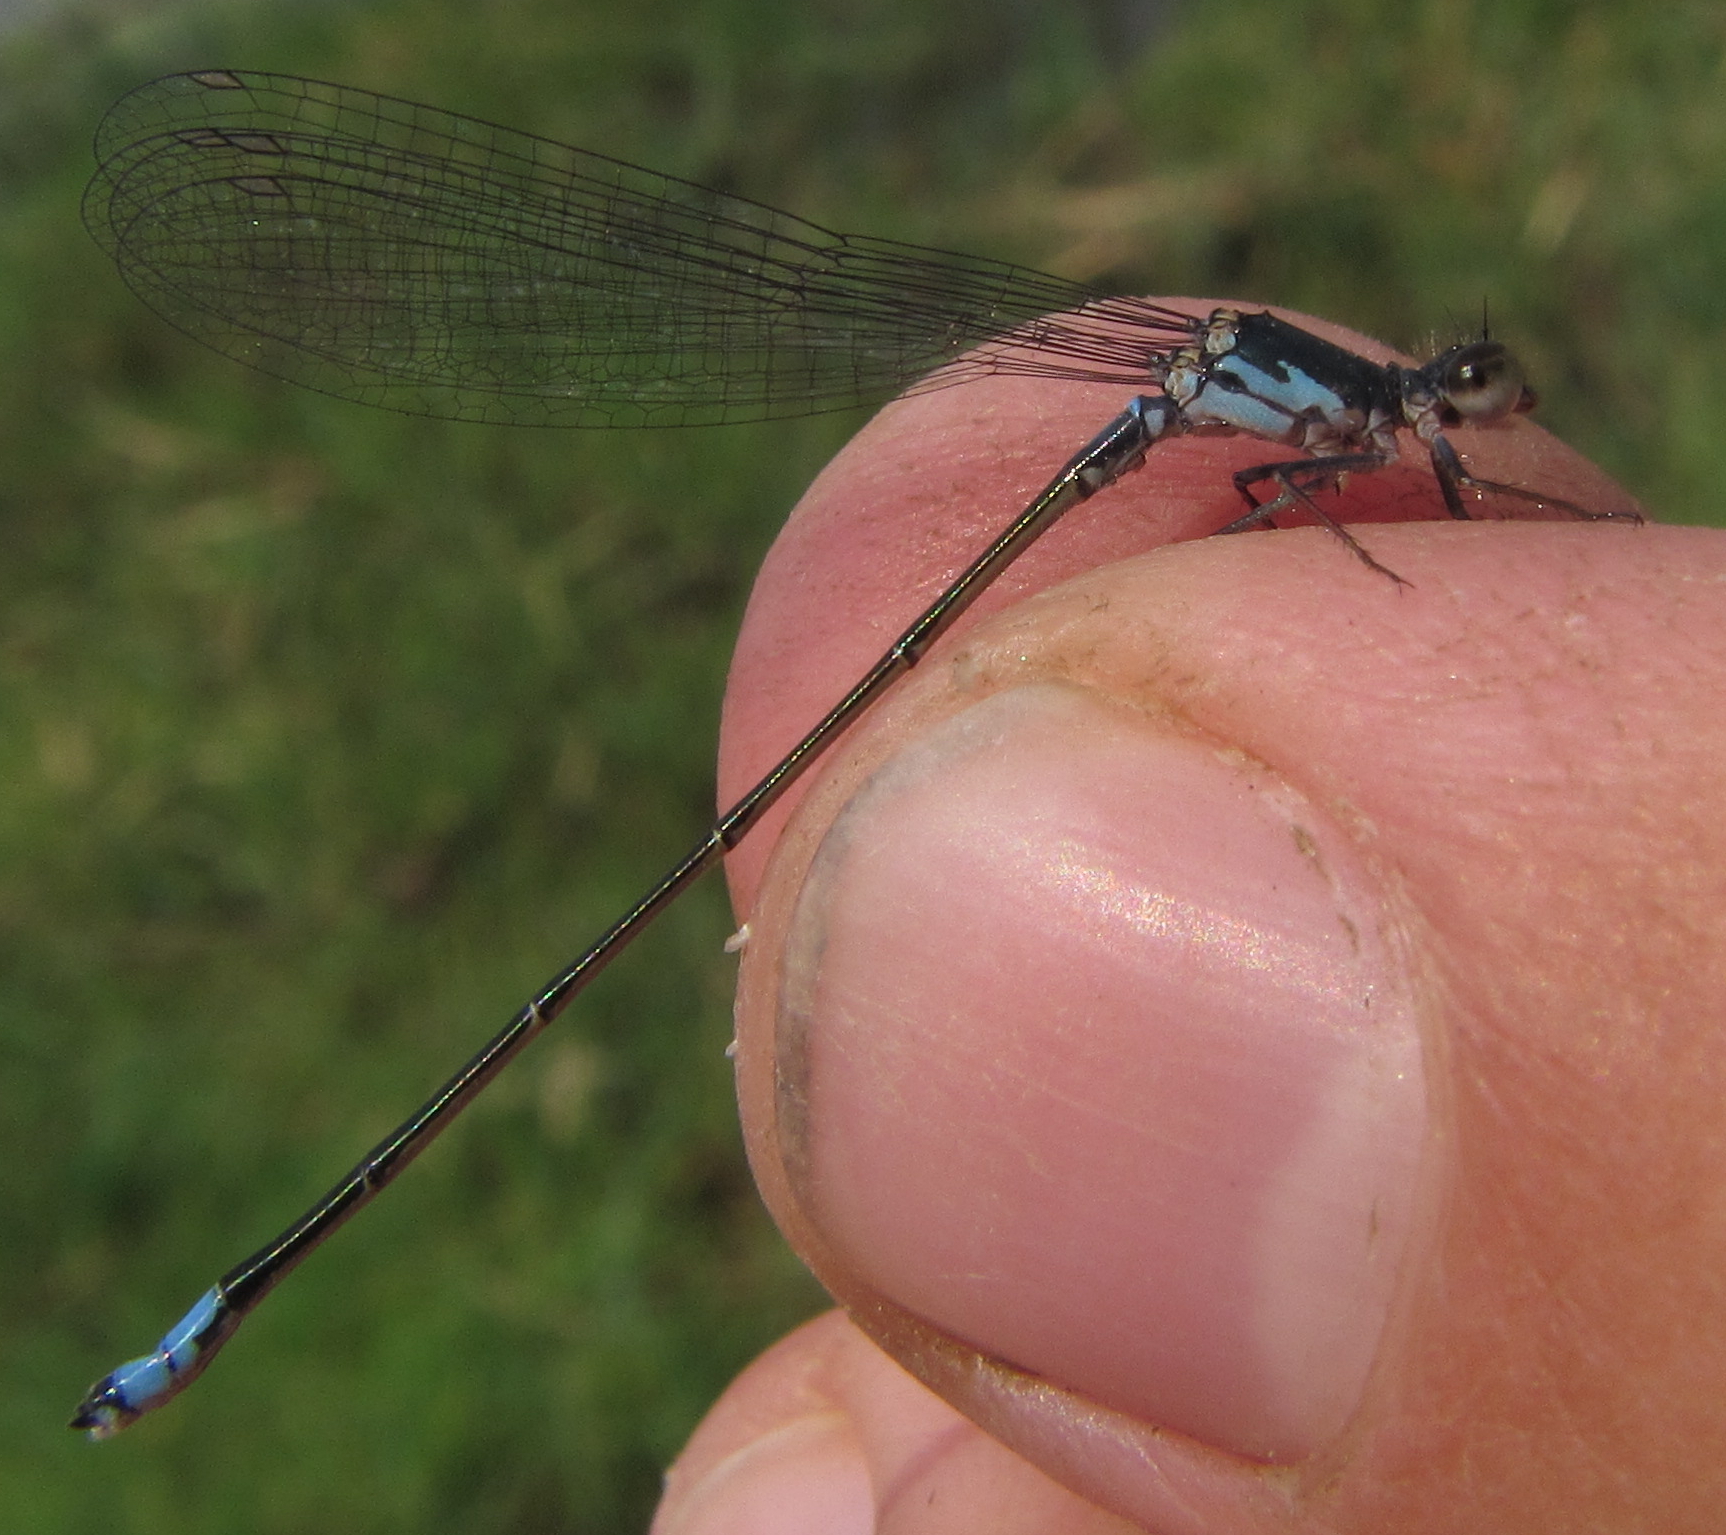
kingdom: Animalia
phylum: Arthropoda
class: Insecta
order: Odonata
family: Coenagrionidae
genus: Pseudagrion
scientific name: Pseudagrion deningi
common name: Dening's sprite
